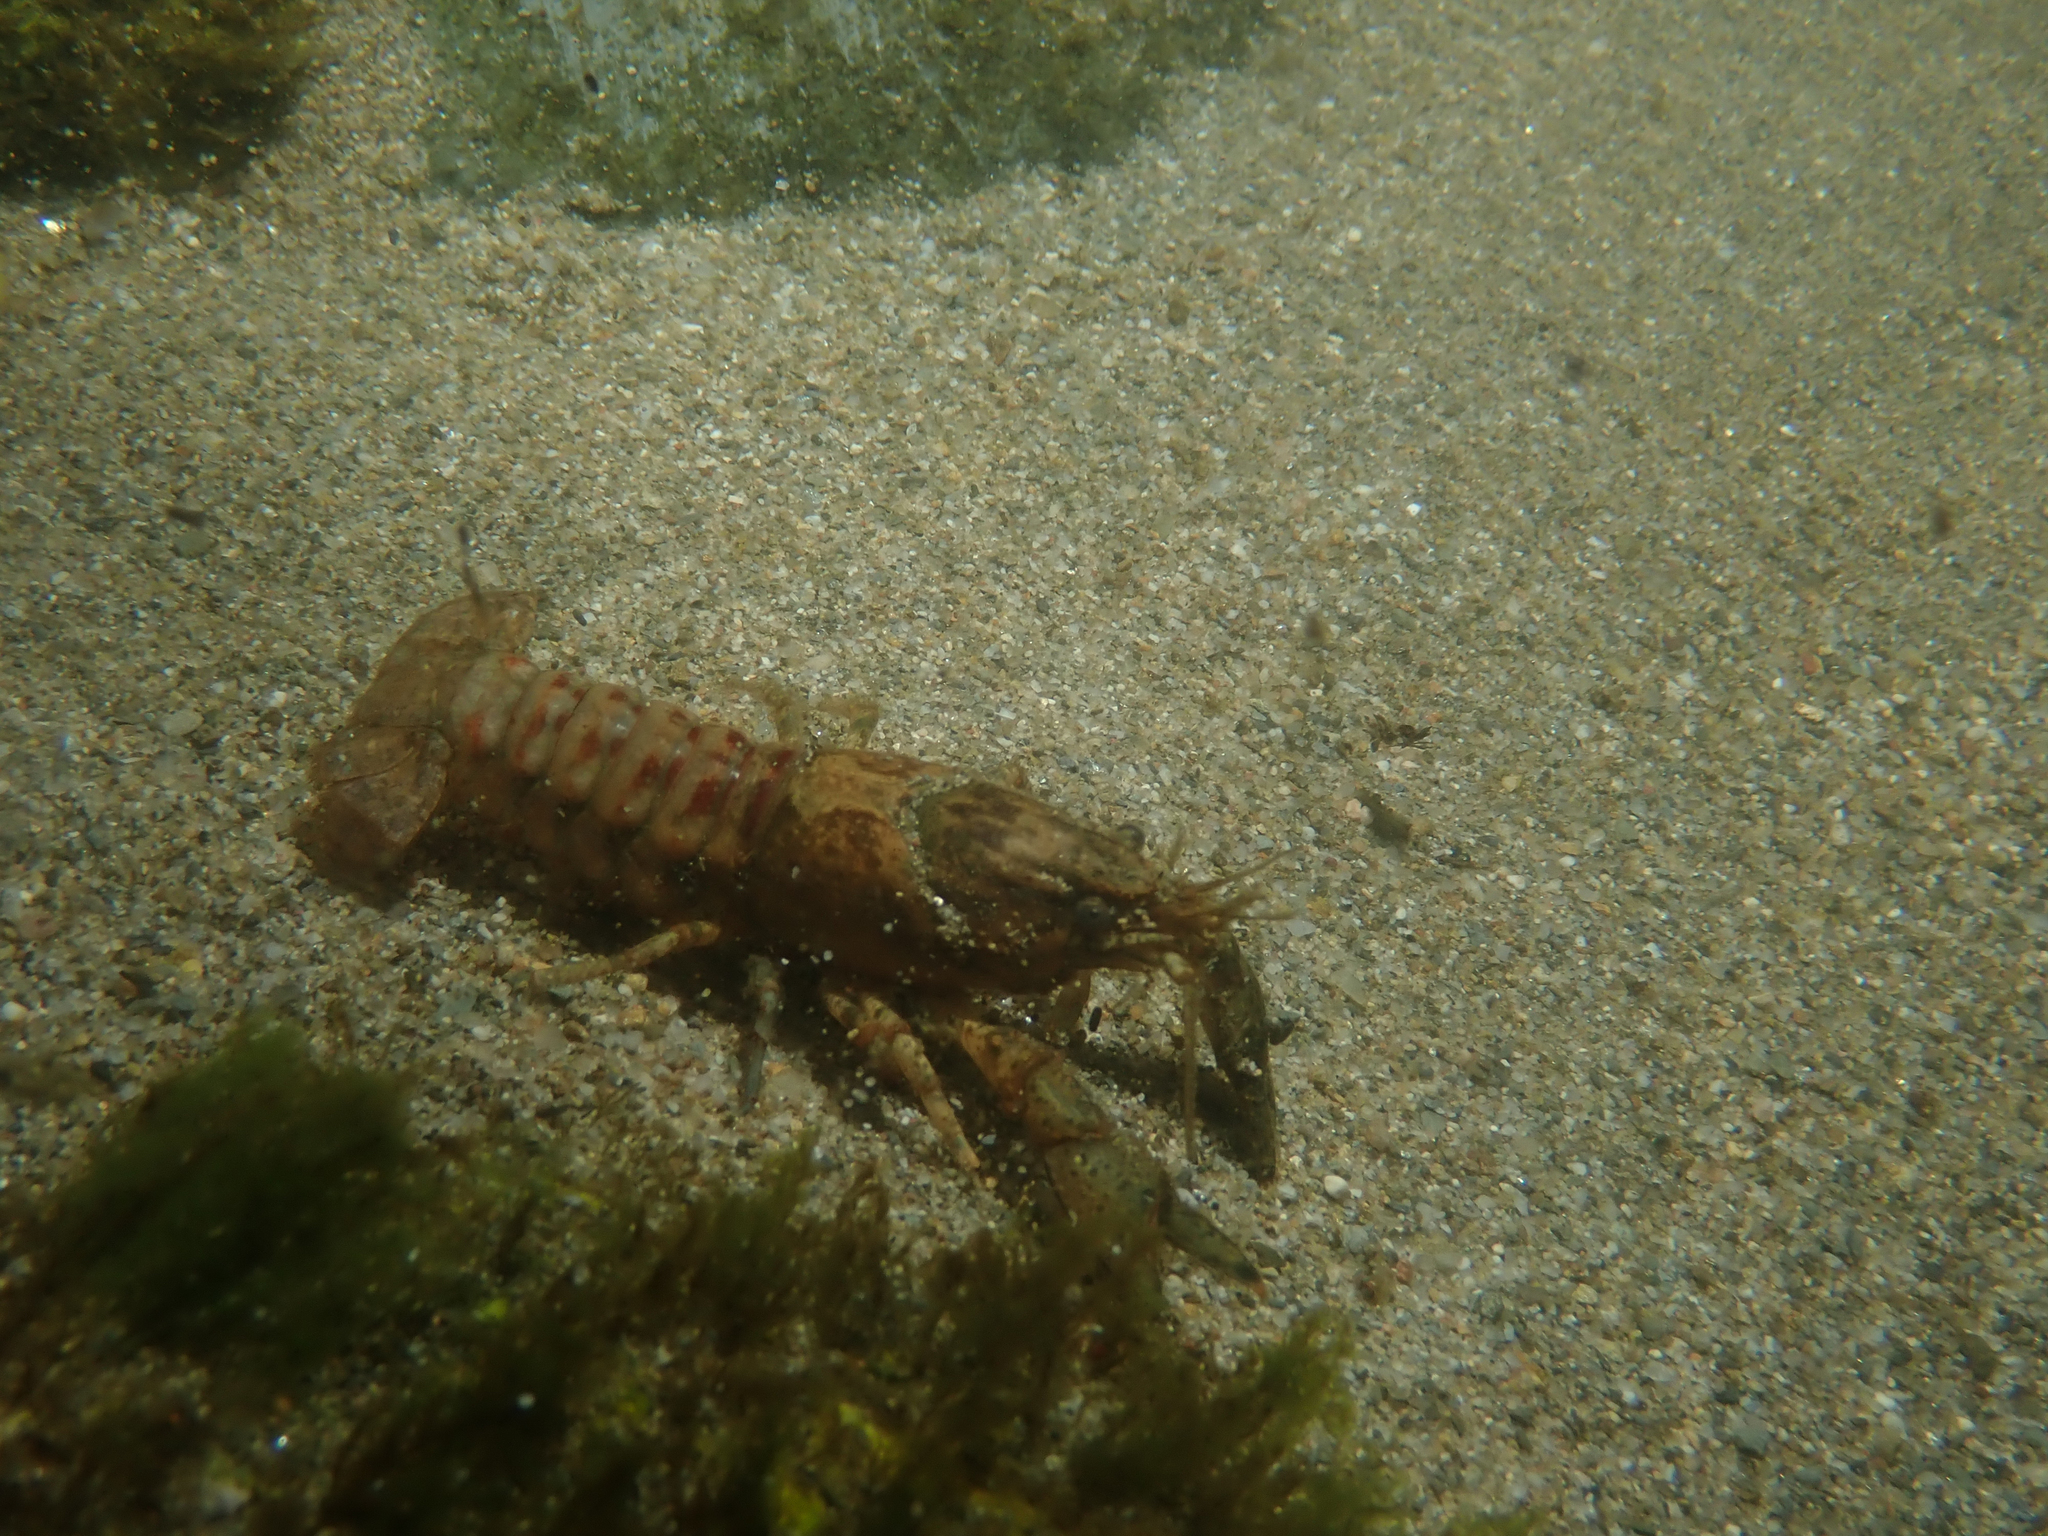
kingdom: Animalia
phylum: Arthropoda
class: Malacostraca
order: Decapoda
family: Cambaridae
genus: Faxonius
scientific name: Faxonius limosus
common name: American crayfish
